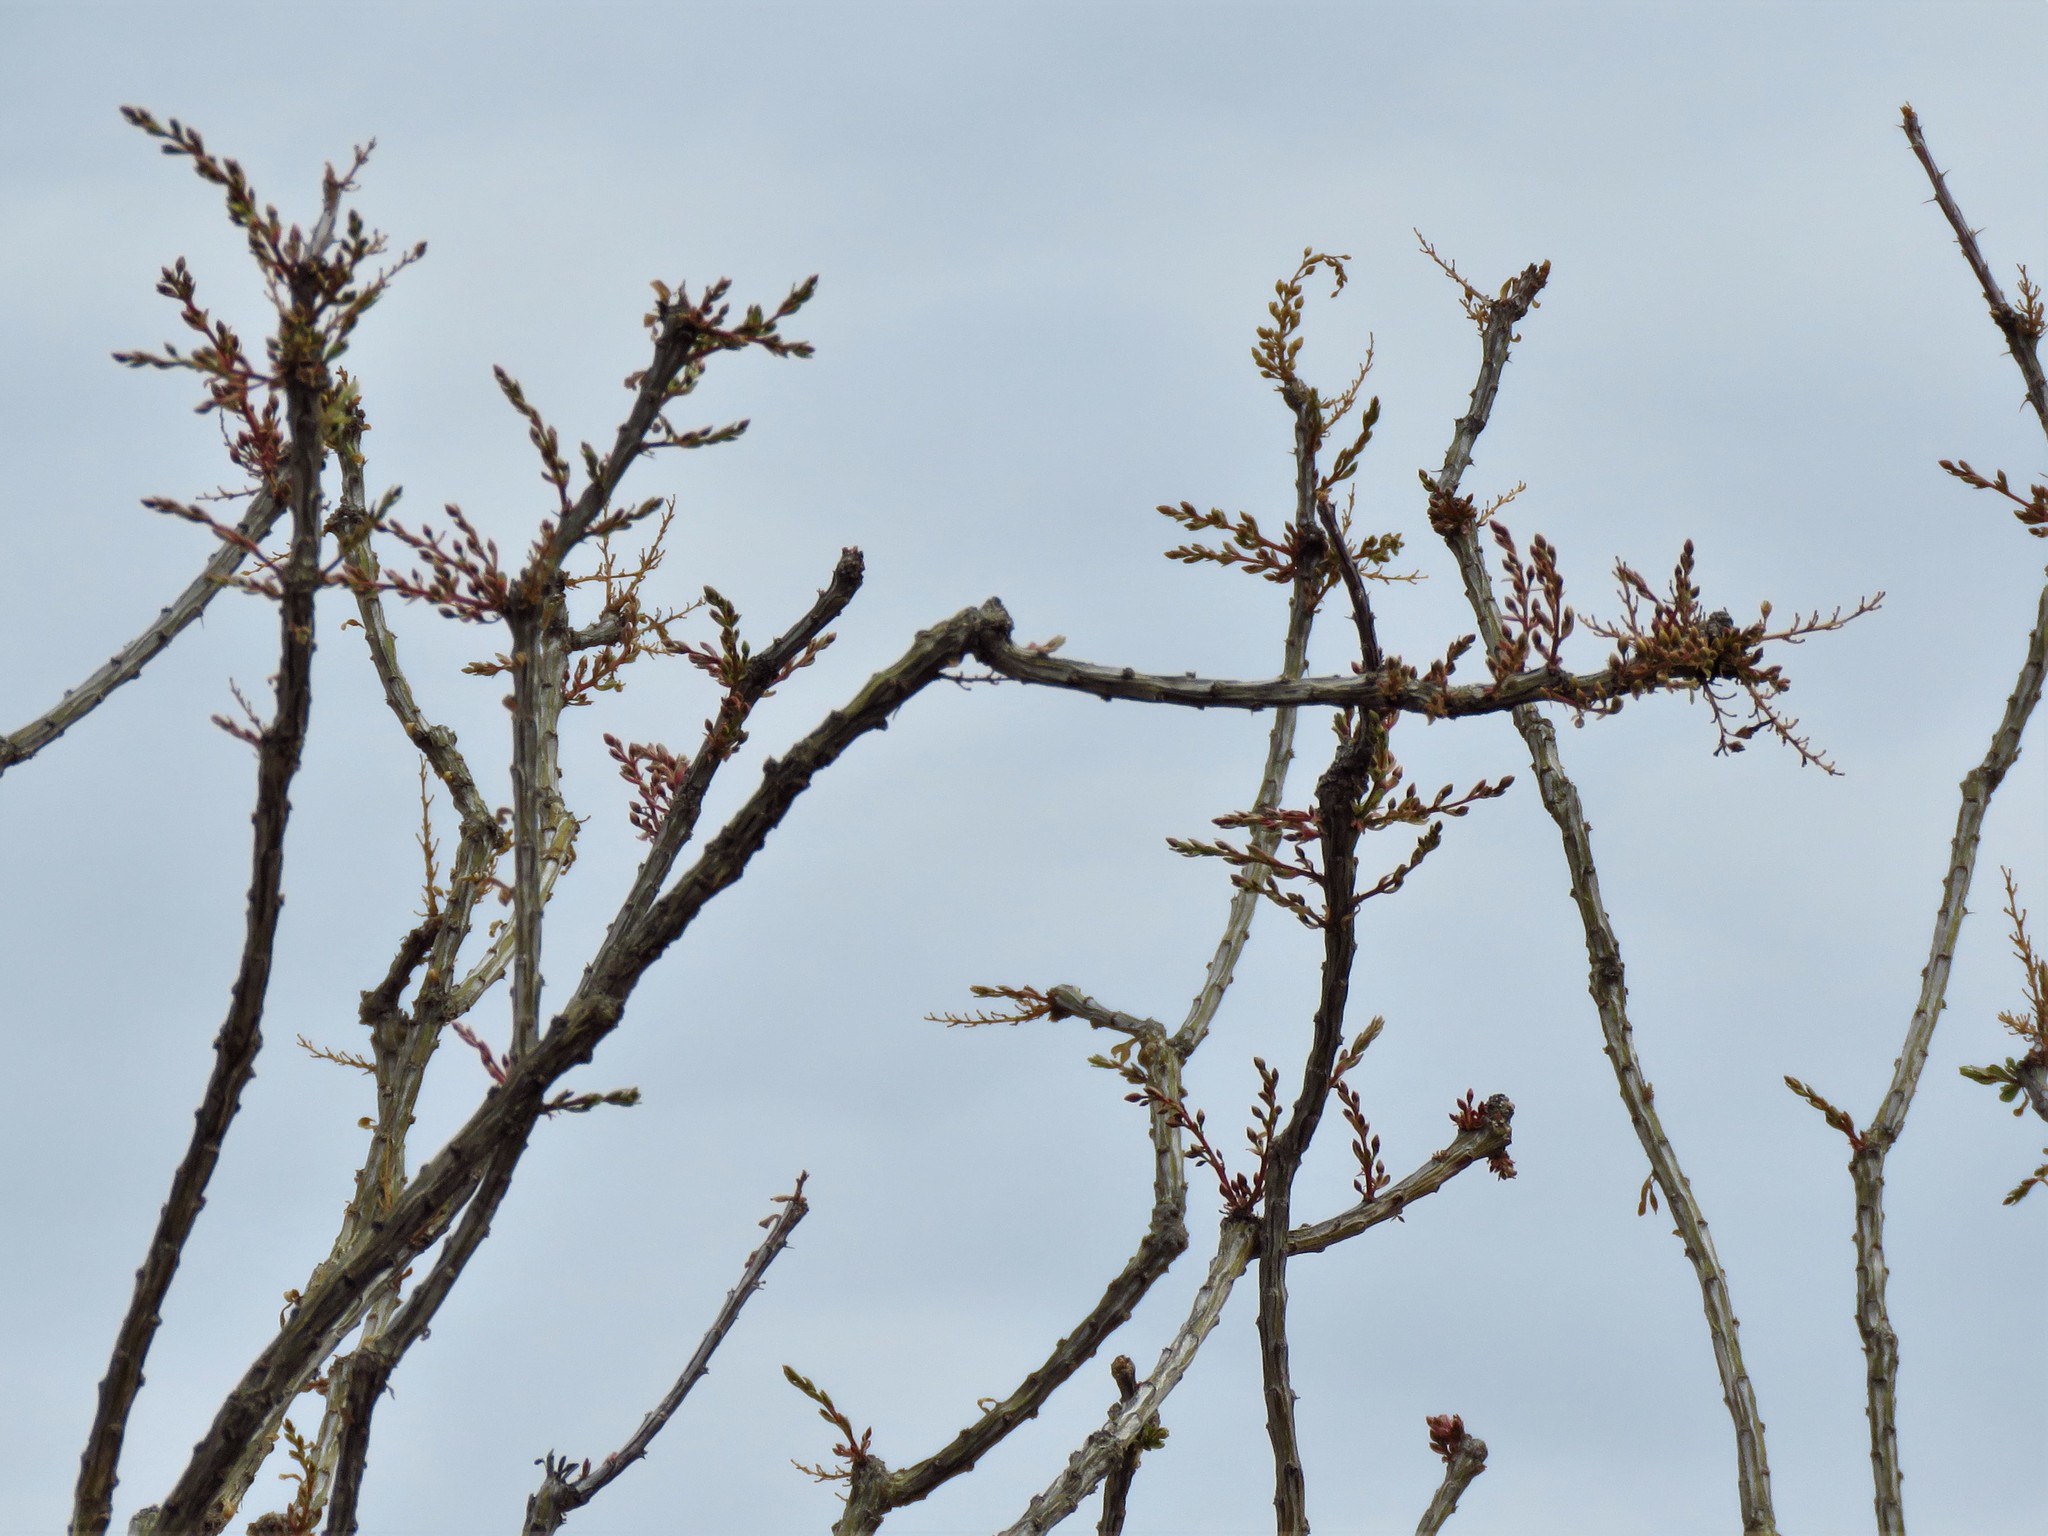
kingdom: Plantae
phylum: Tracheophyta
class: Magnoliopsida
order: Ericales
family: Fouquieriaceae
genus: Fouquieria
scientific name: Fouquieria splendens
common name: Vine-cactus
